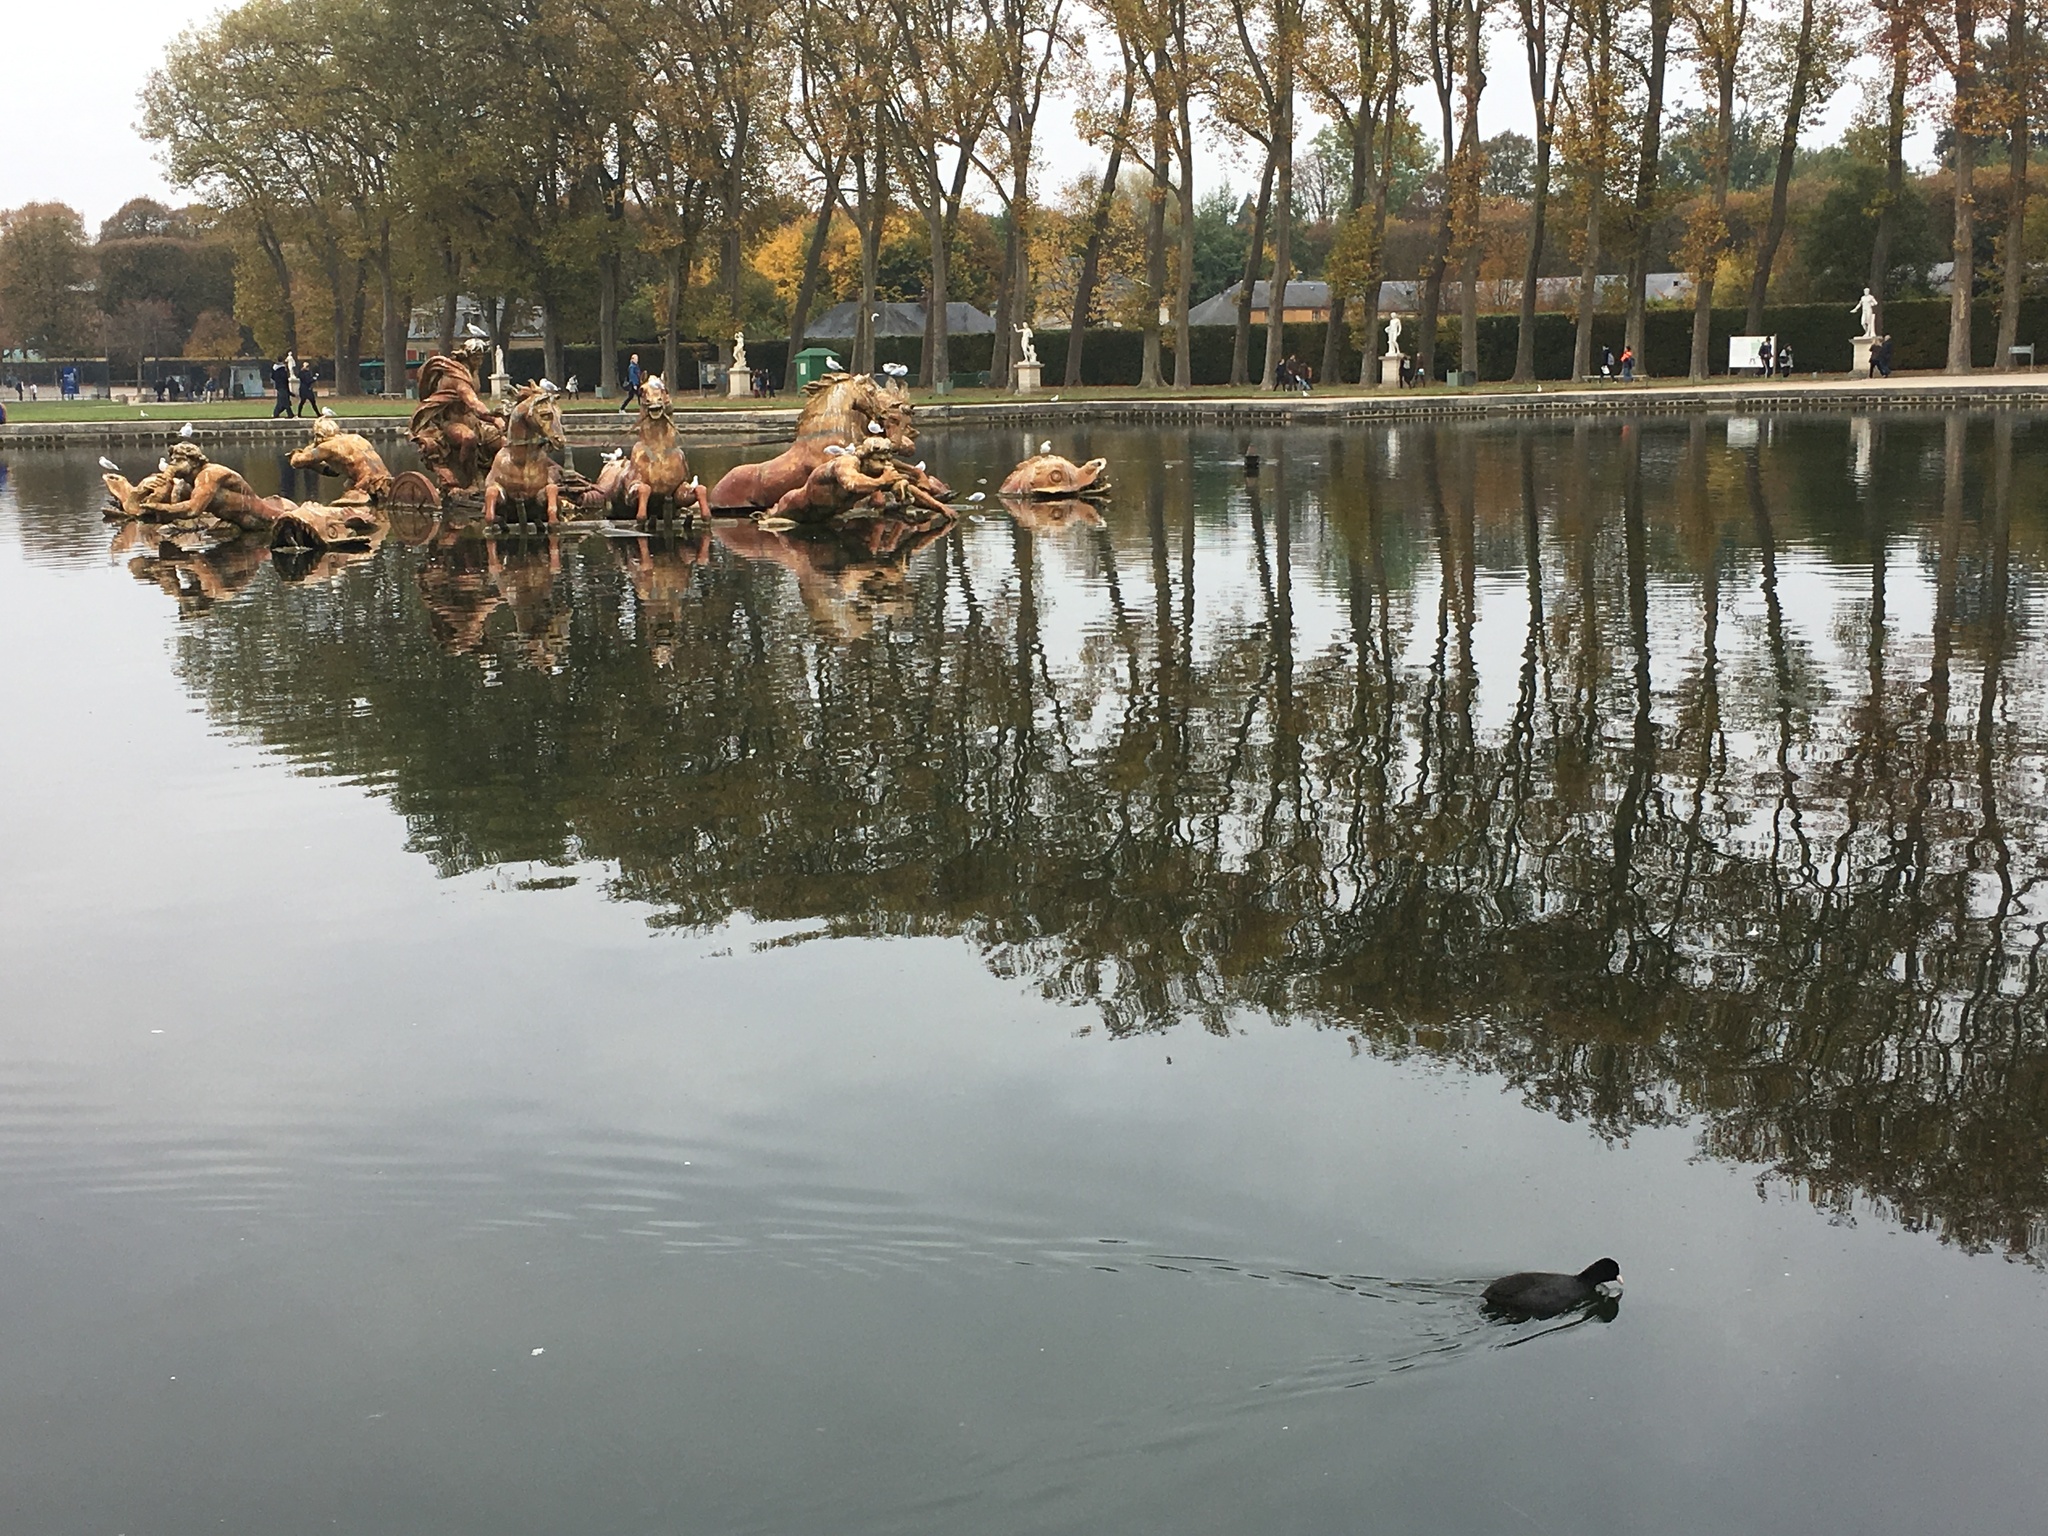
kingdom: Animalia
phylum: Chordata
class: Aves
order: Gruiformes
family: Rallidae
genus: Fulica
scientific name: Fulica atra
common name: Eurasian coot
